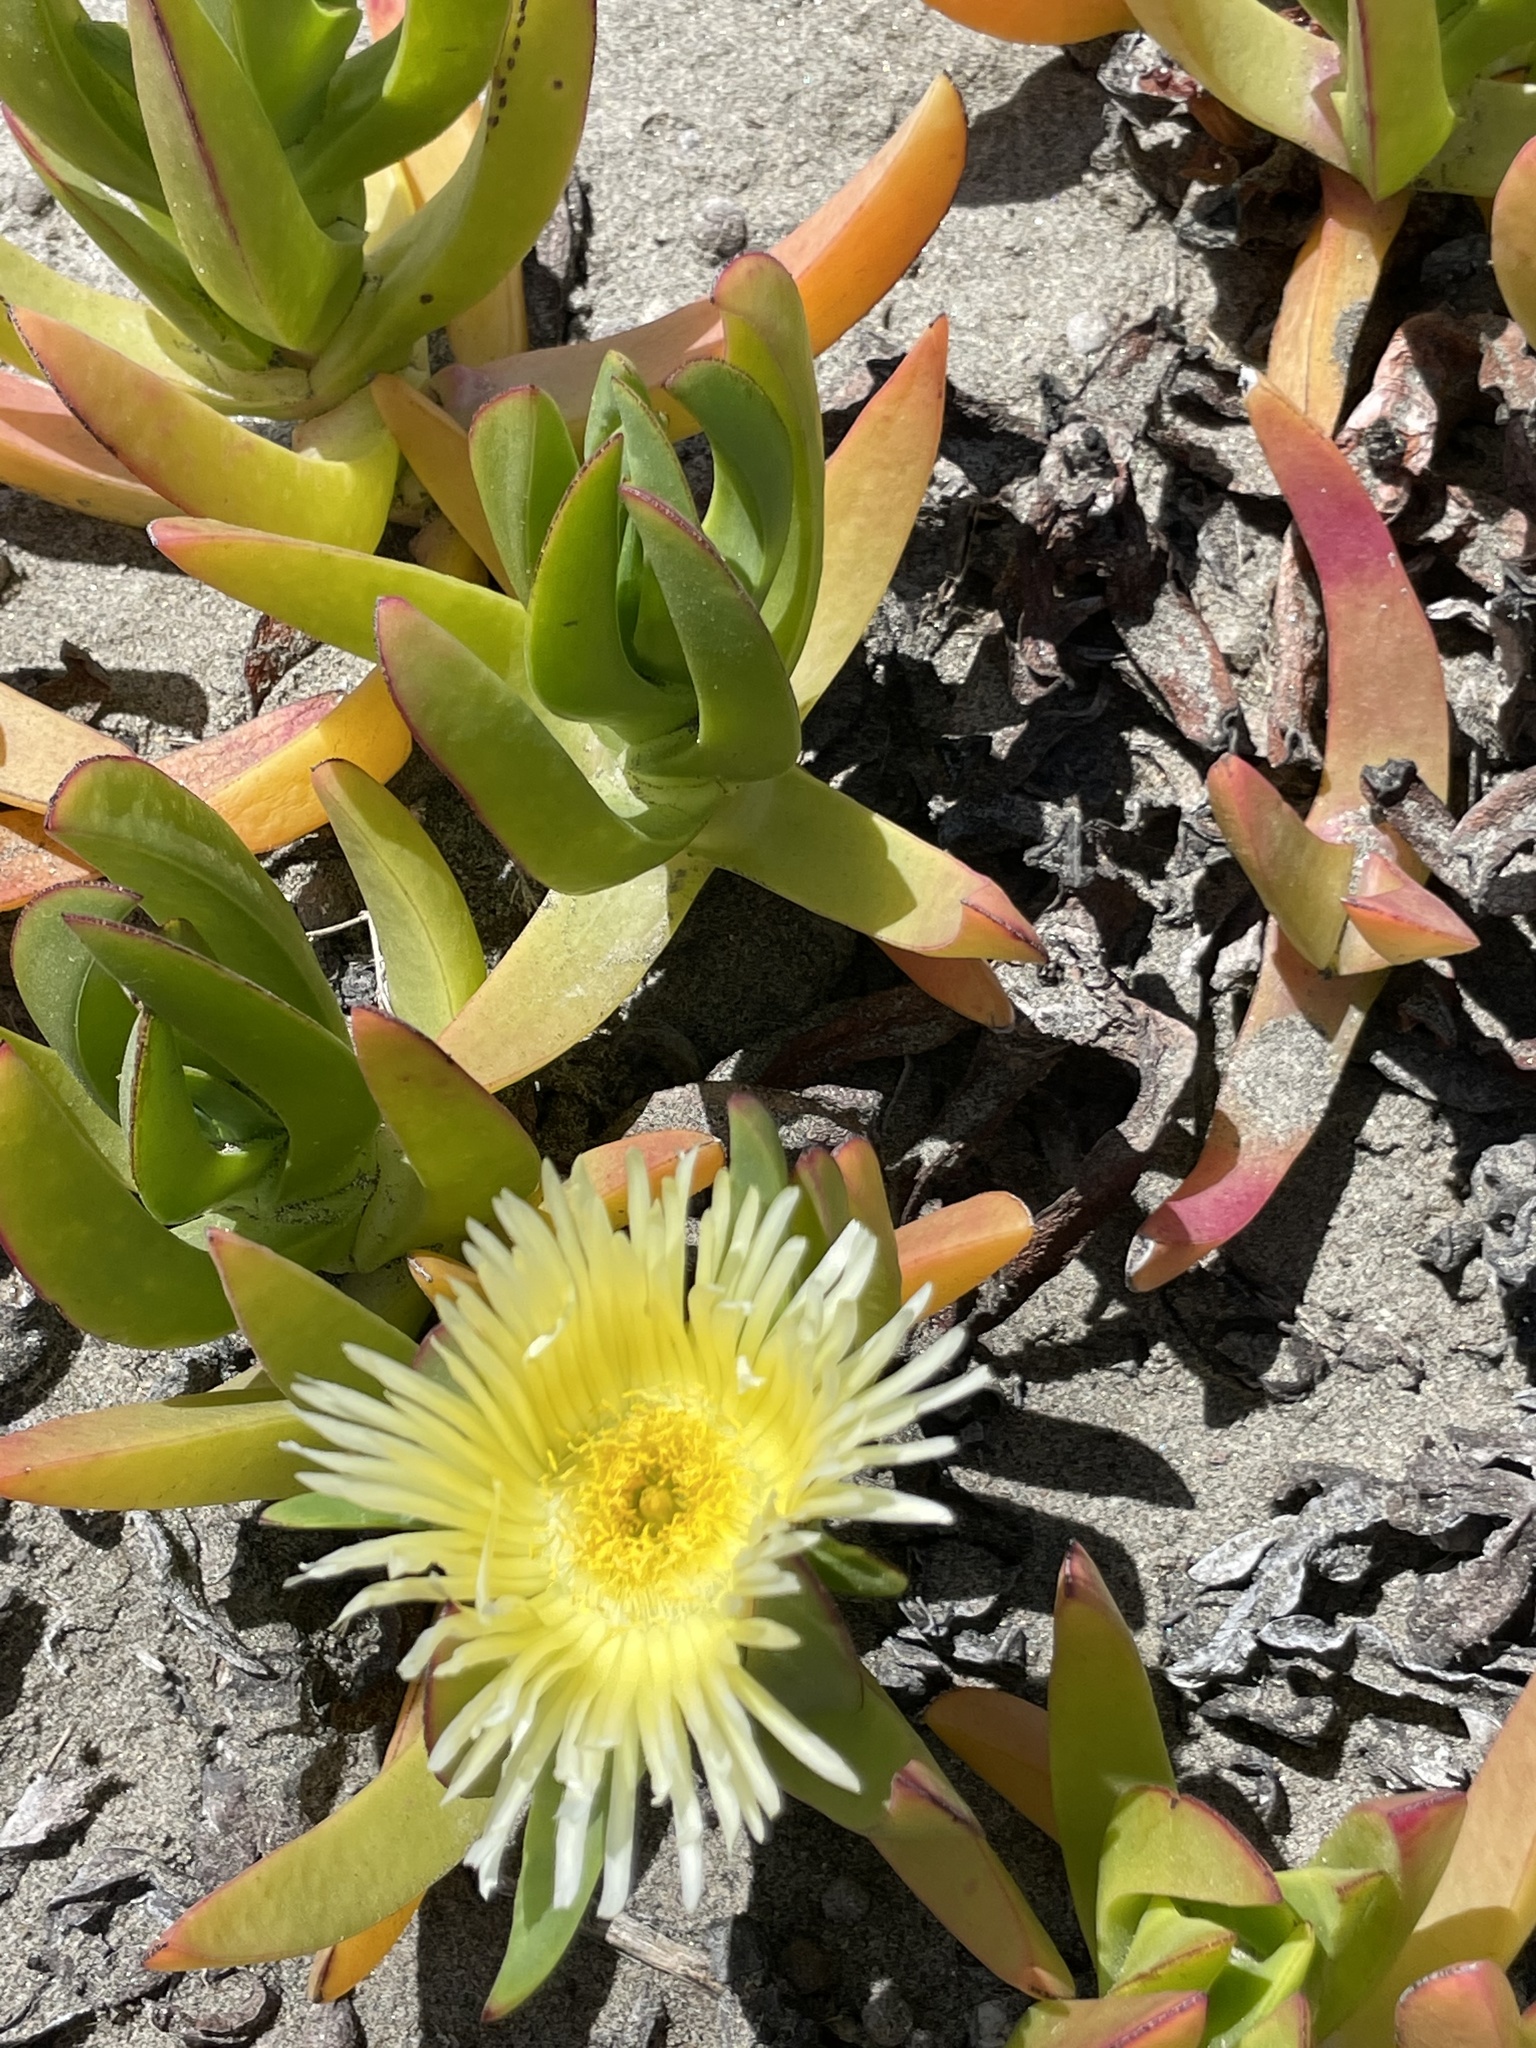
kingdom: Plantae
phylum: Tracheophyta
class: Magnoliopsida
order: Caryophyllales
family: Aizoaceae
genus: Carpobrotus
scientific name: Carpobrotus edulis
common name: Hottentot-fig
